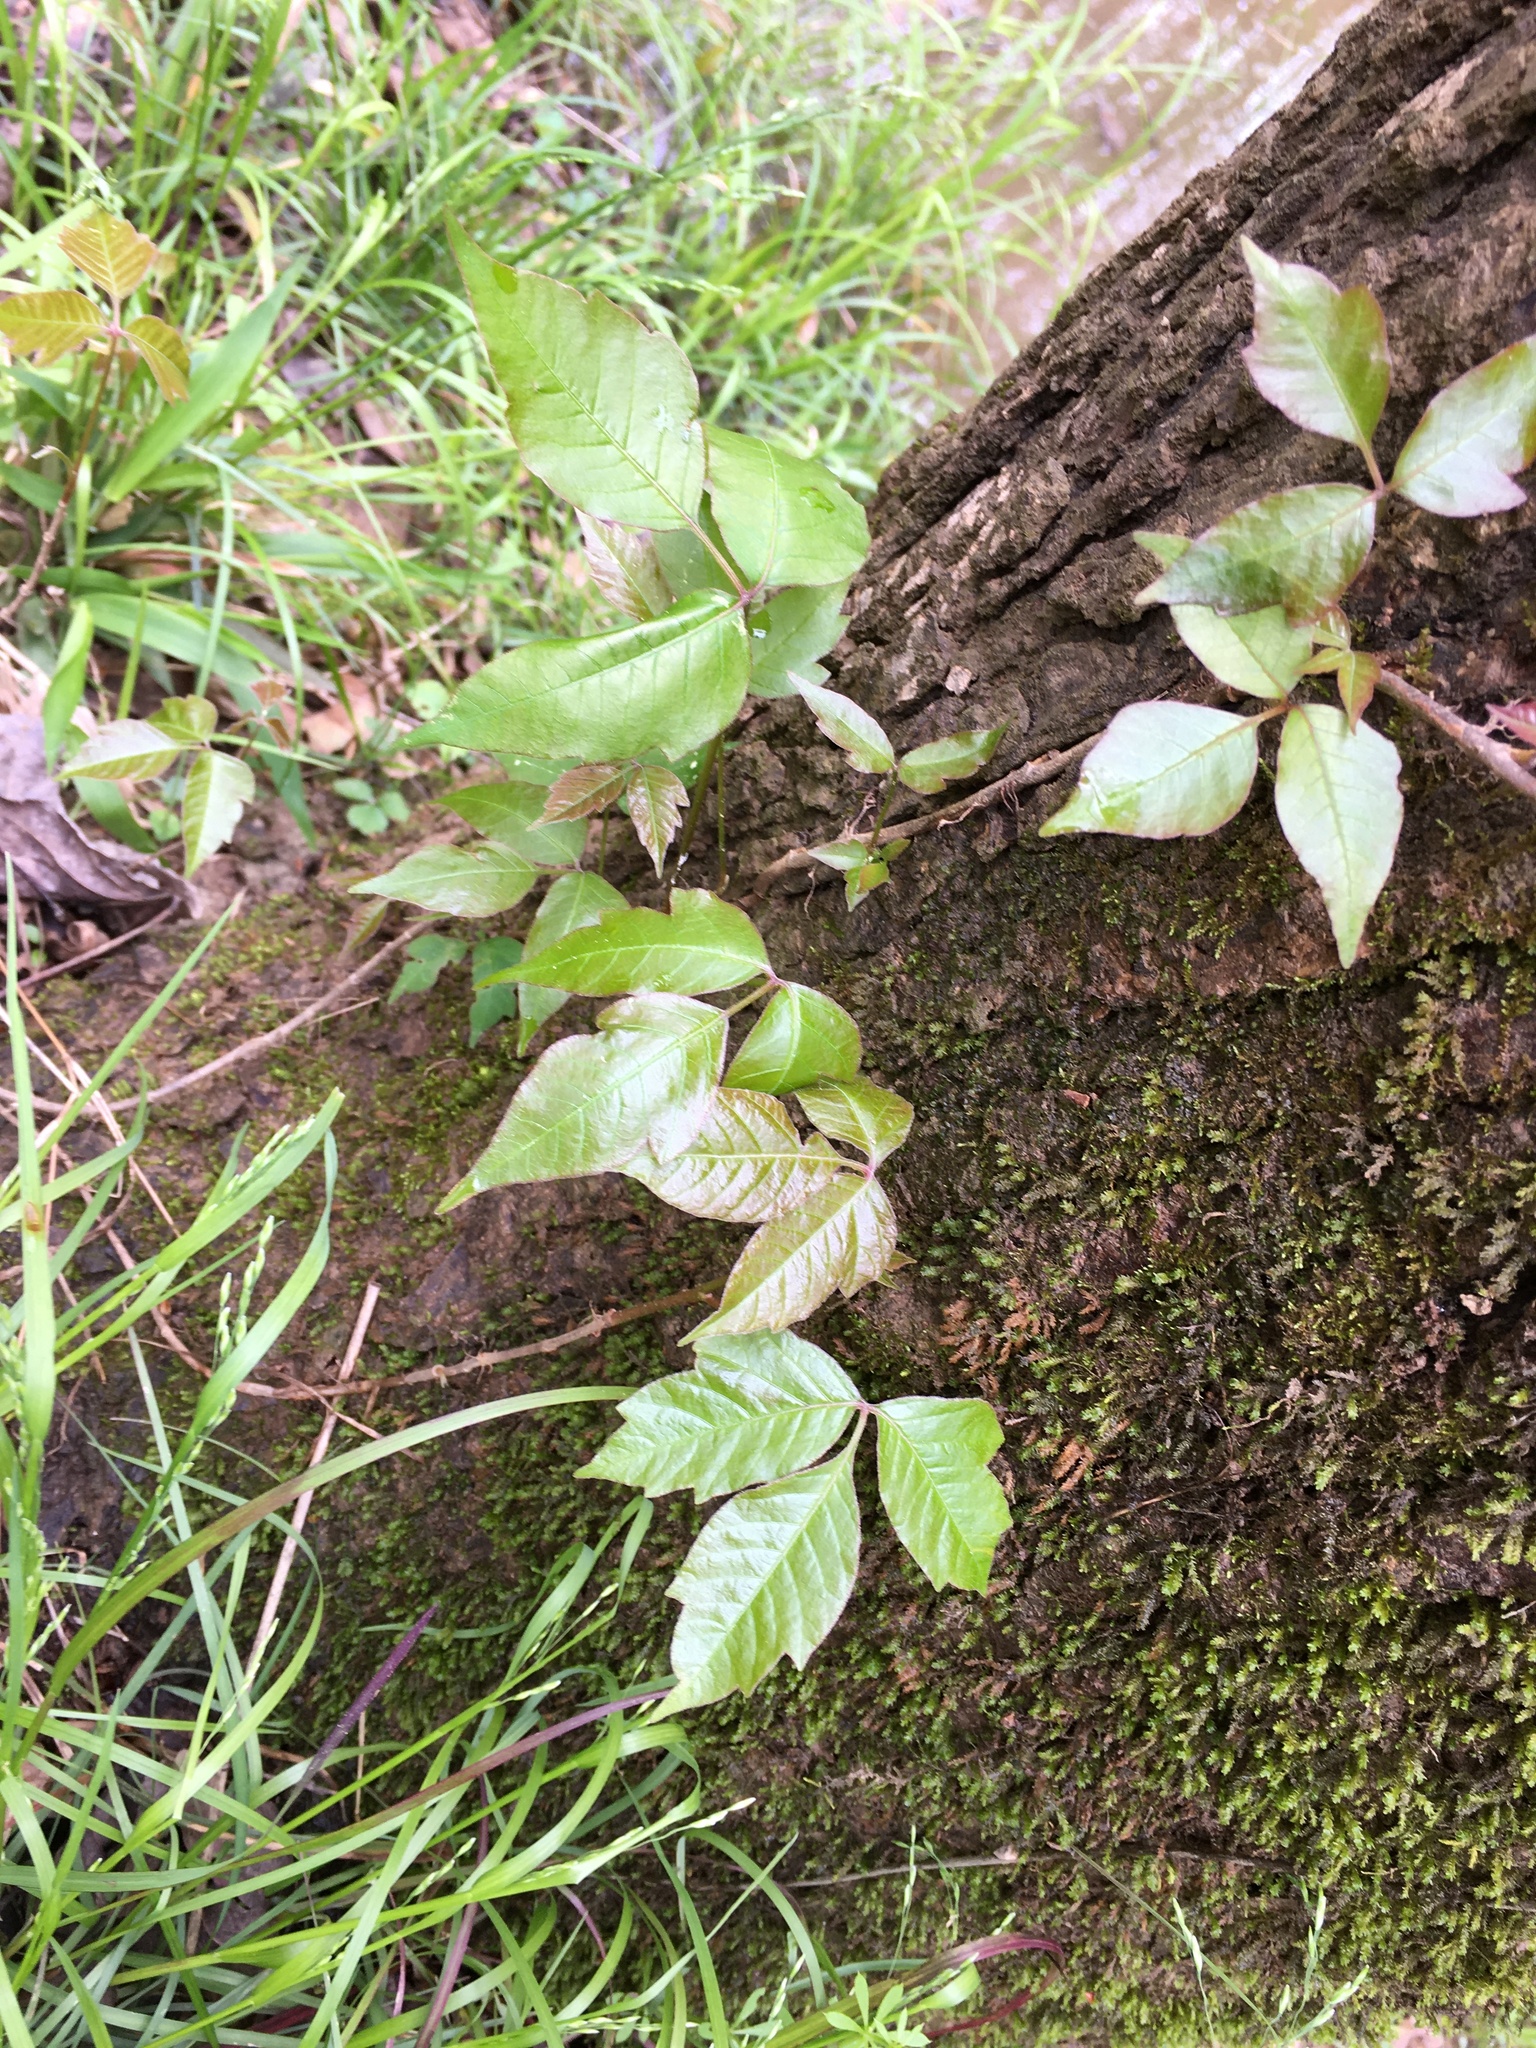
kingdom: Plantae
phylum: Tracheophyta
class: Magnoliopsida
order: Sapindales
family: Anacardiaceae
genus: Toxicodendron
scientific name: Toxicodendron radicans
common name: Poison ivy
